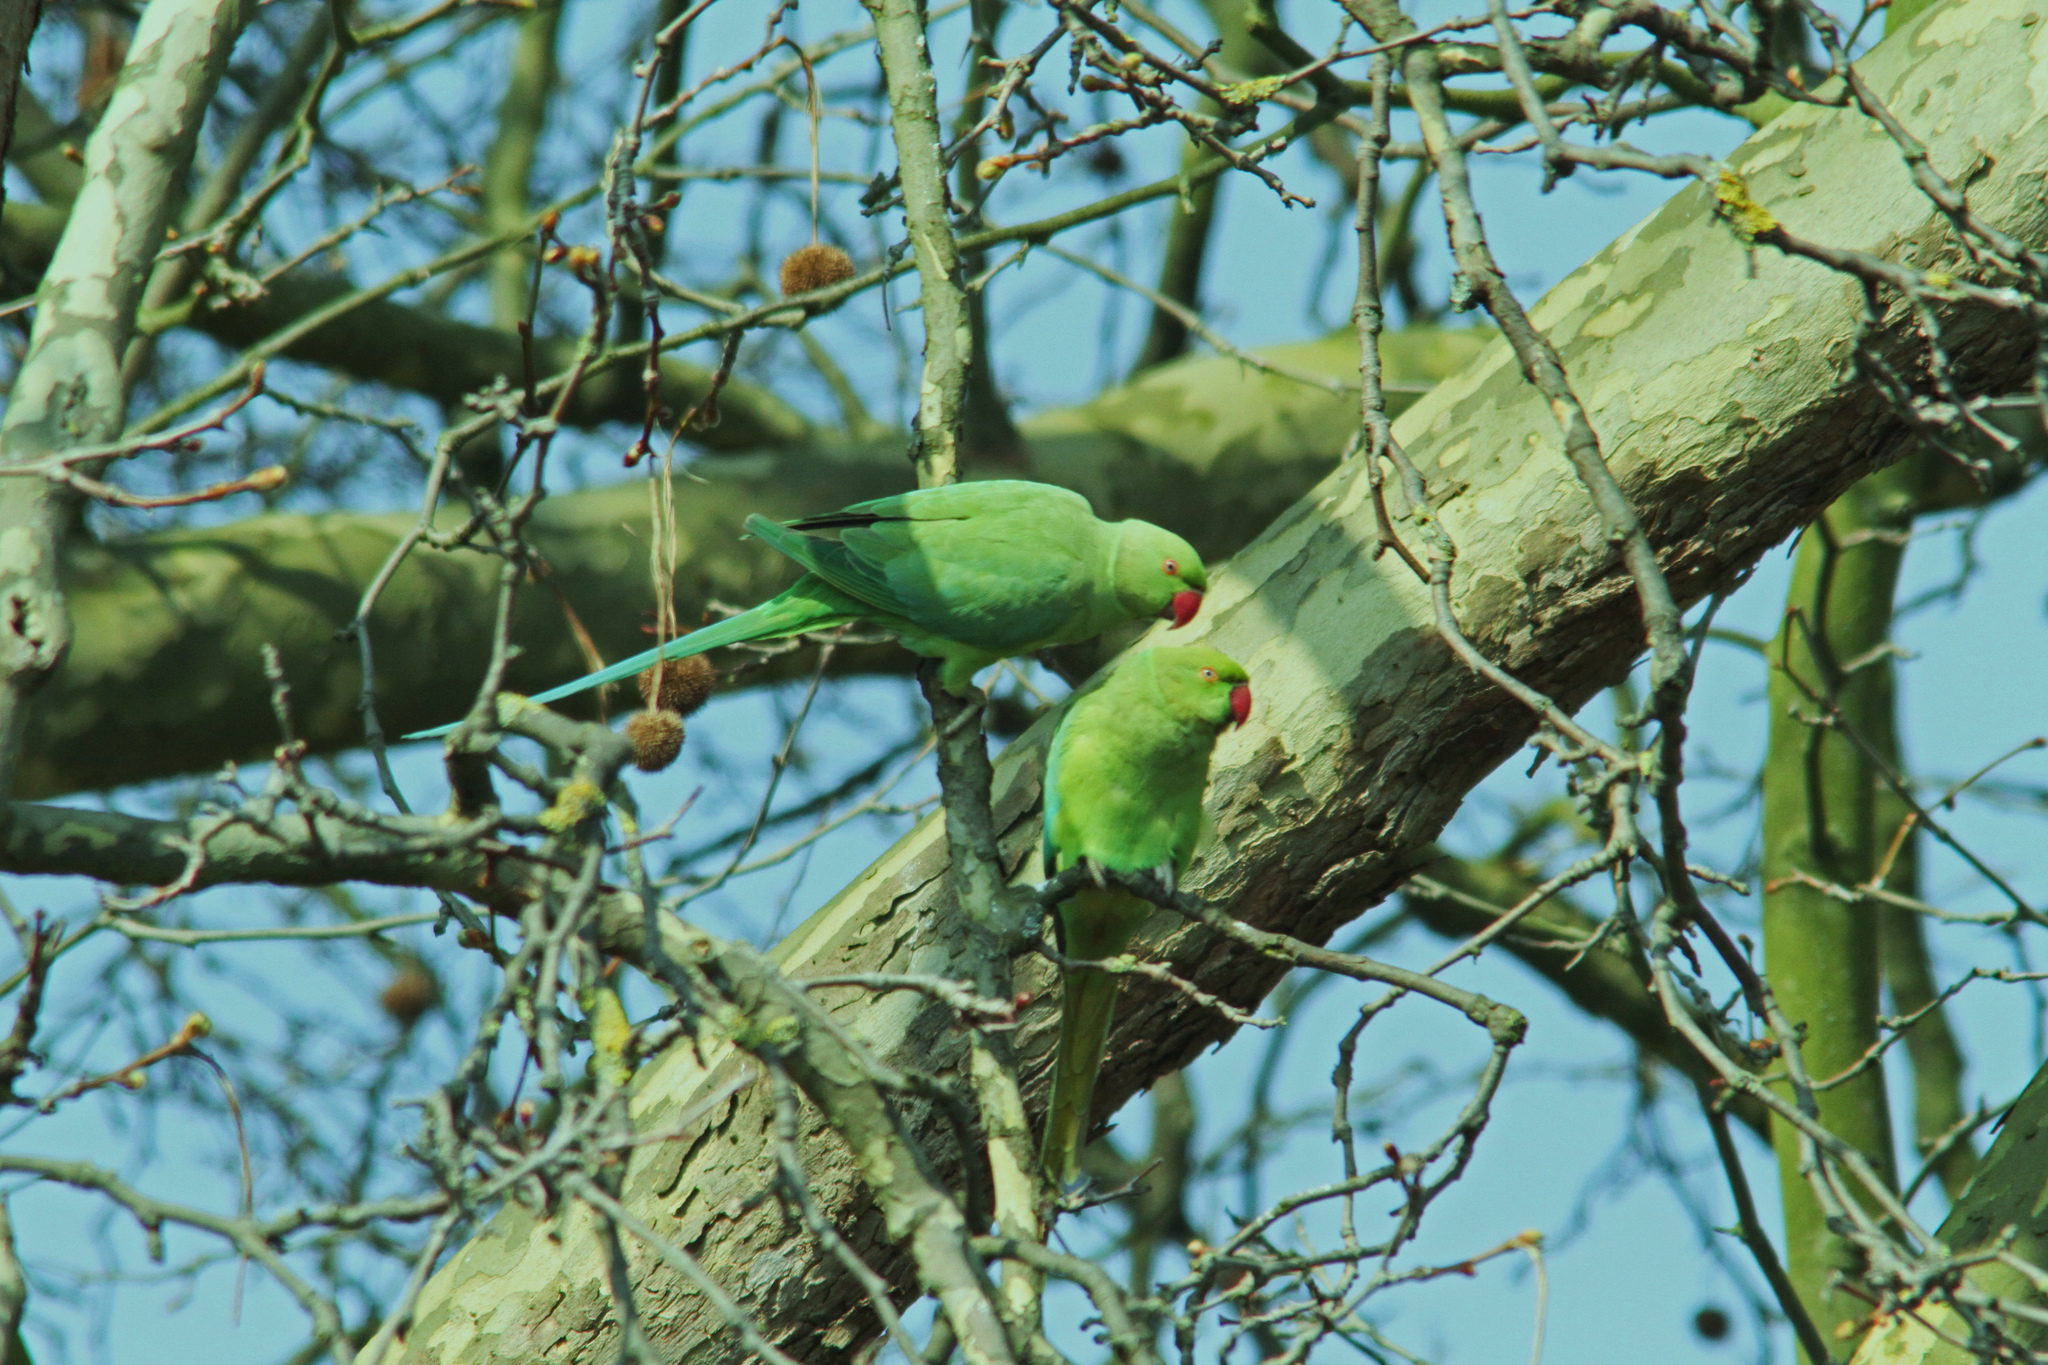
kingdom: Animalia
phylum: Chordata
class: Aves
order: Psittaciformes
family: Psittacidae
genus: Psittacula
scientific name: Psittacula krameri
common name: Rose-ringed parakeet
